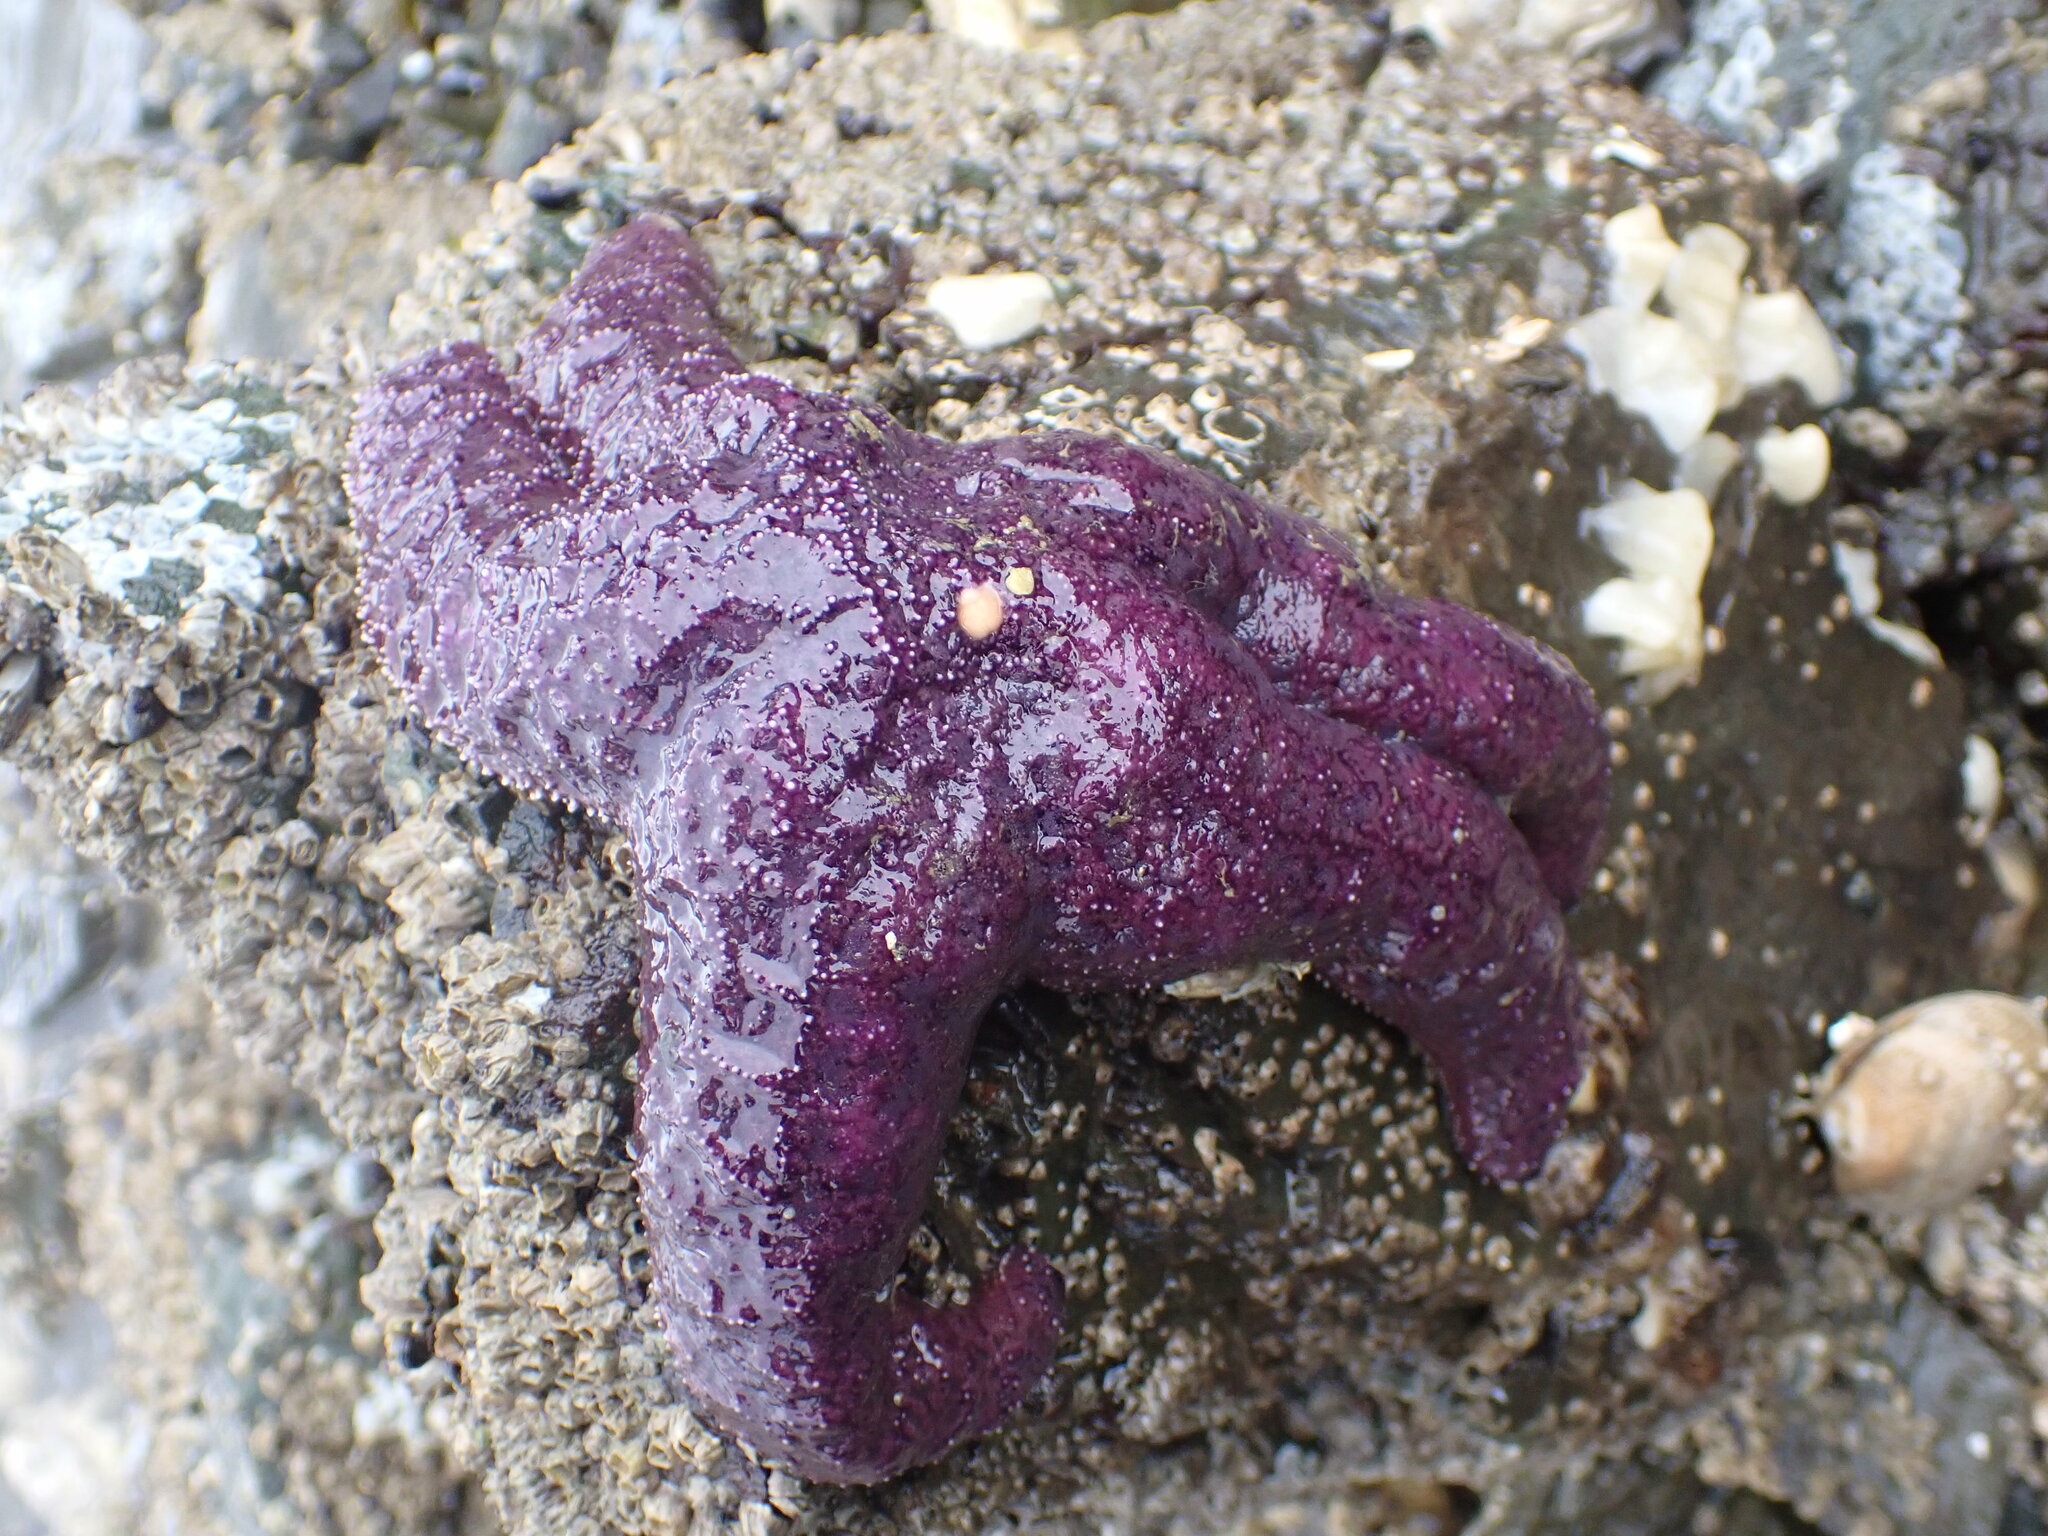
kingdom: Animalia
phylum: Echinodermata
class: Asteroidea
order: Forcipulatida
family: Asteriidae
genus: Pisaster
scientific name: Pisaster ochraceus
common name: Ochre stars
